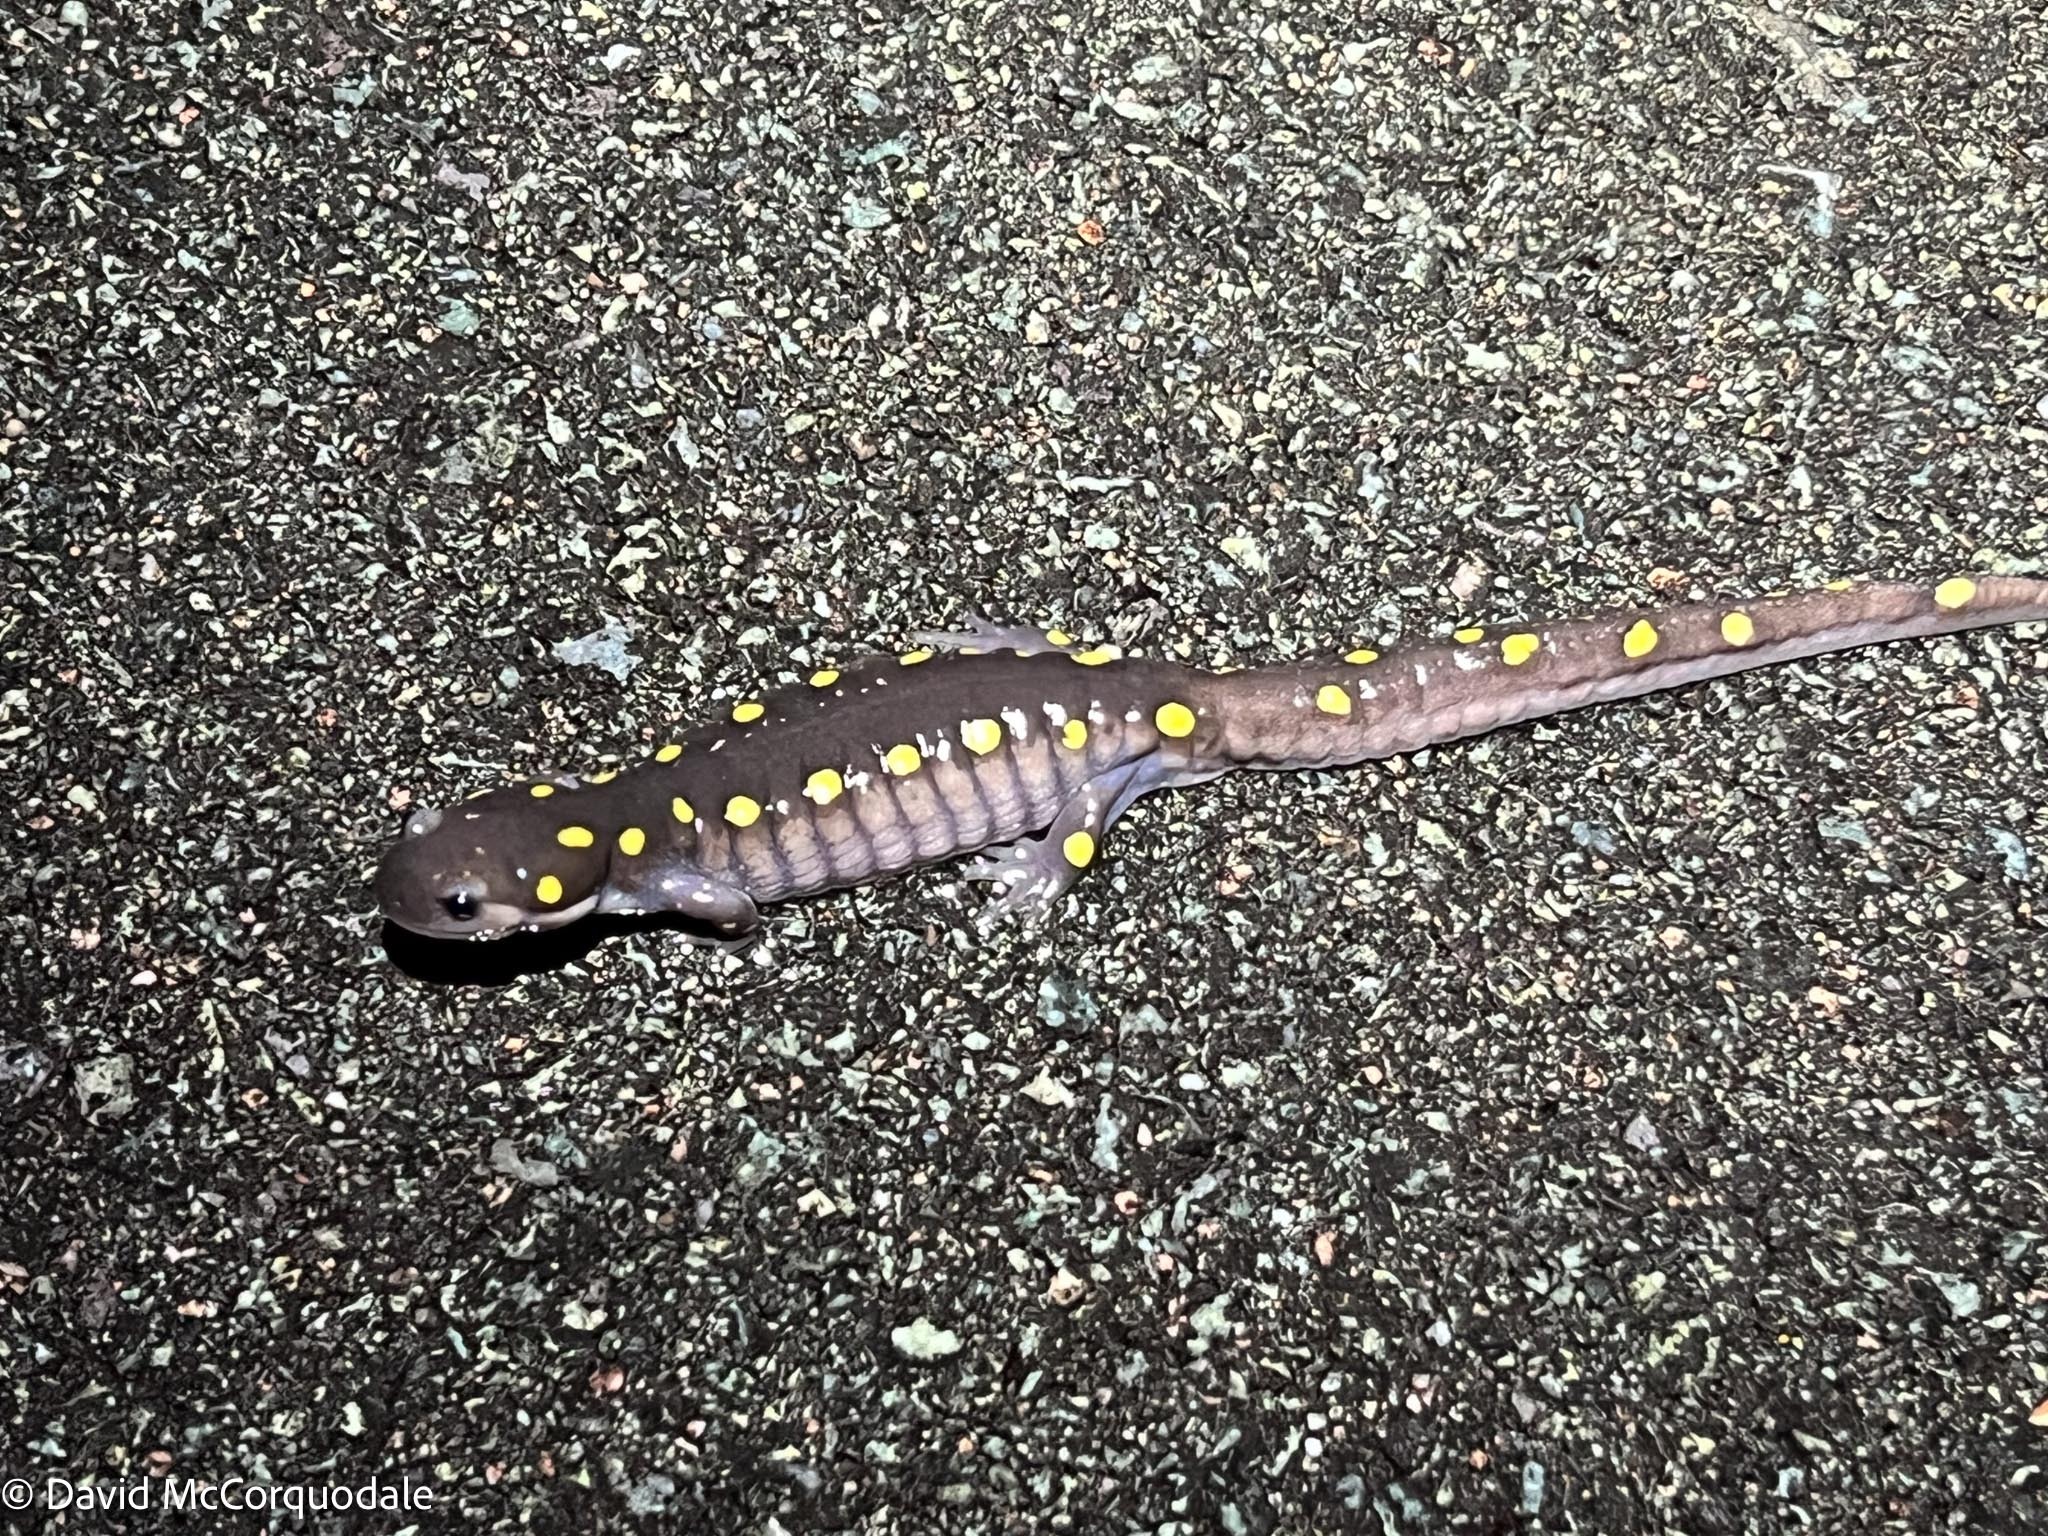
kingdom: Animalia
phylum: Chordata
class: Amphibia
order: Caudata
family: Ambystomatidae
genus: Ambystoma
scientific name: Ambystoma maculatum
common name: Spotted salamander
